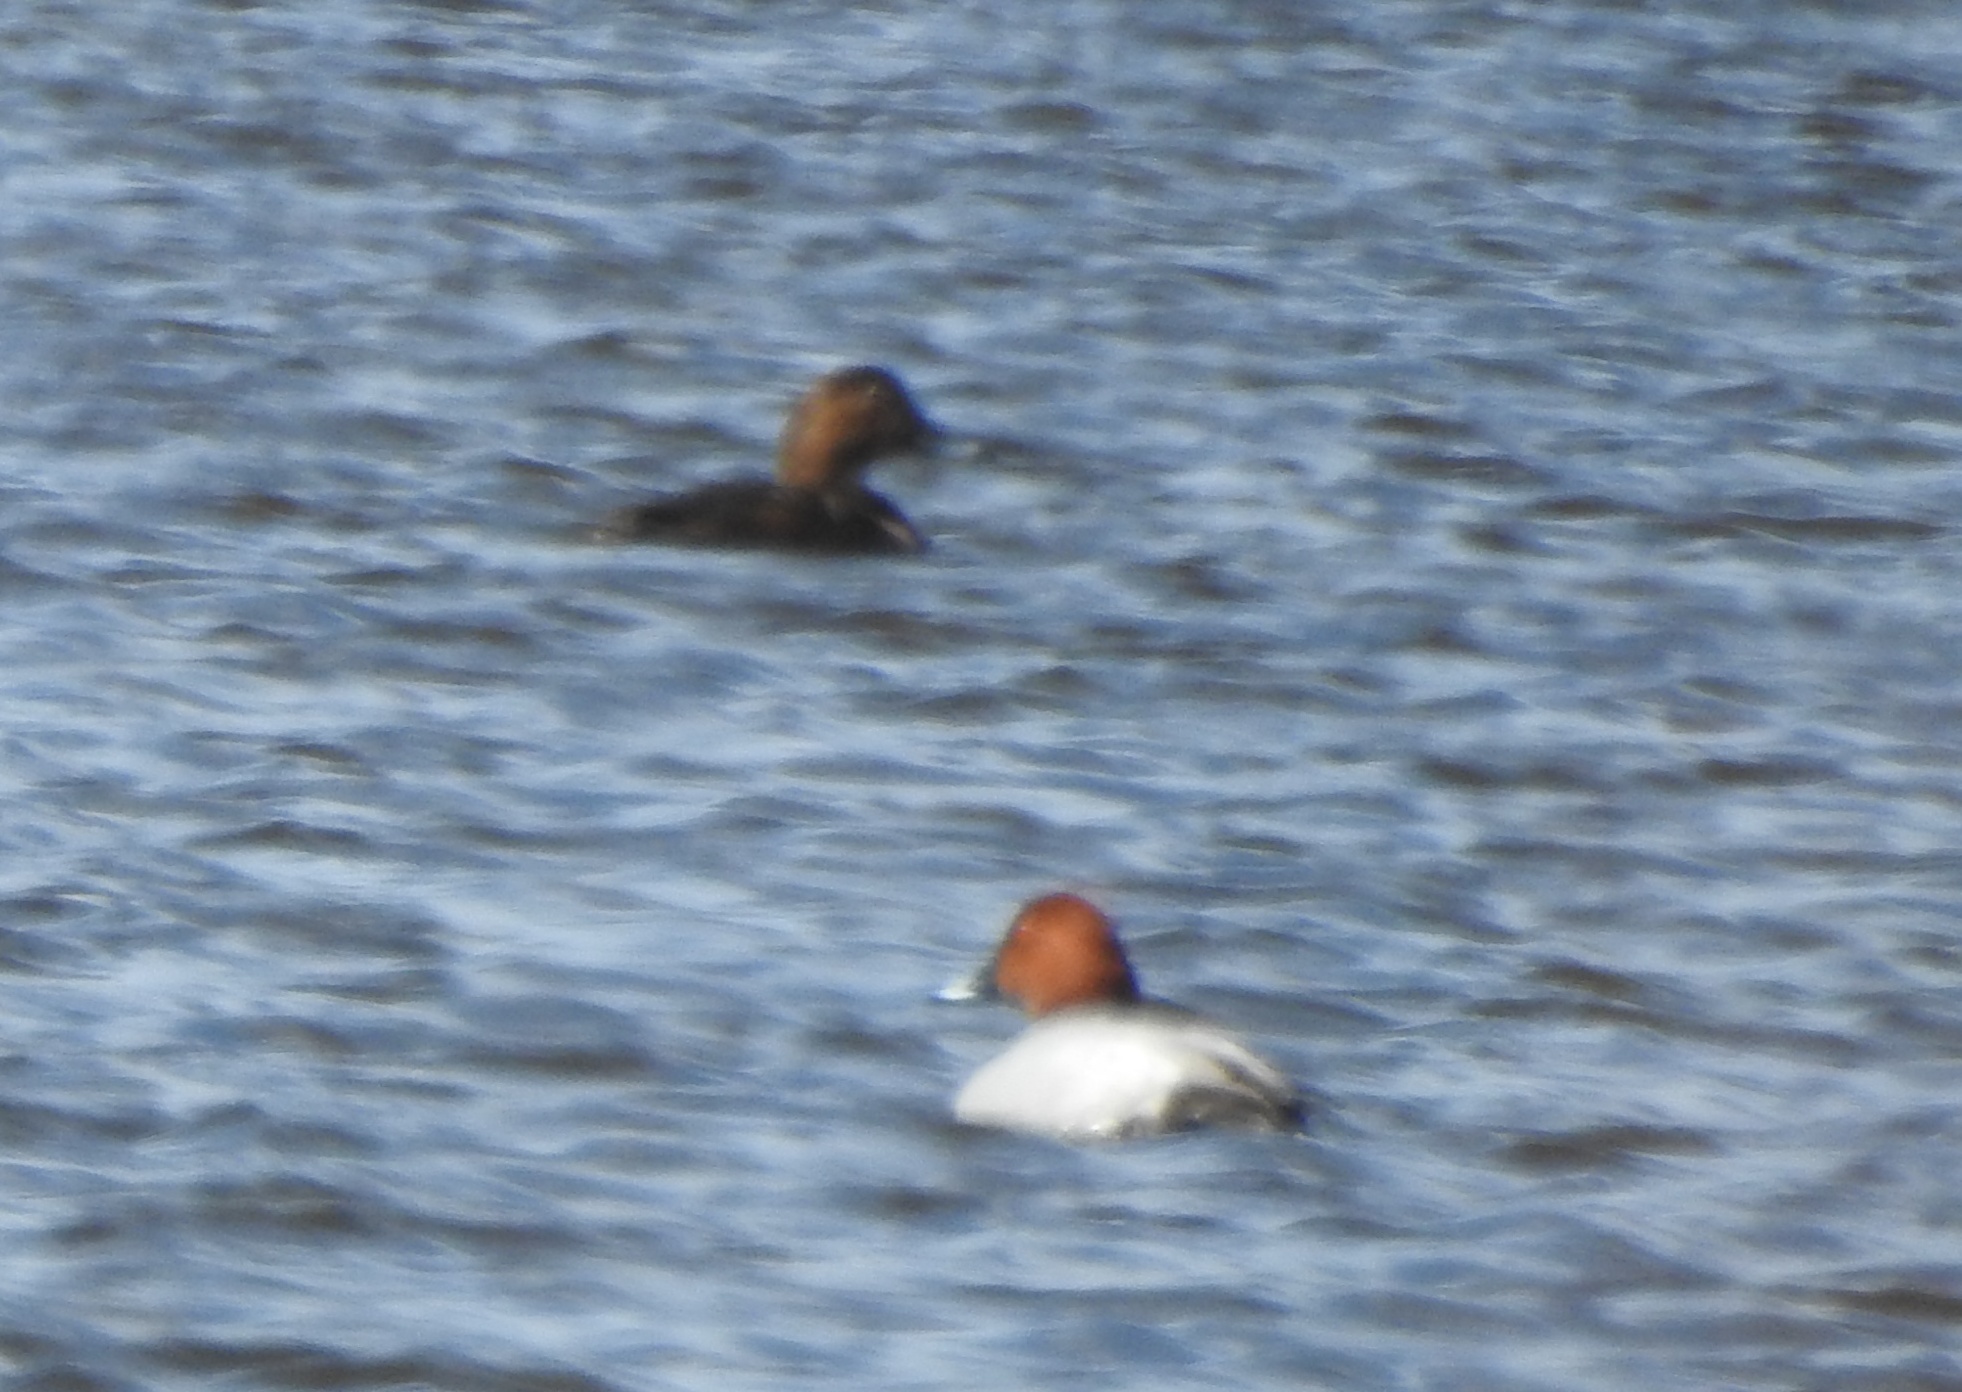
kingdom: Animalia
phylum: Chordata
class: Aves
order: Anseriformes
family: Anatidae
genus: Aythya
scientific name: Aythya ferina
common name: Common pochard
